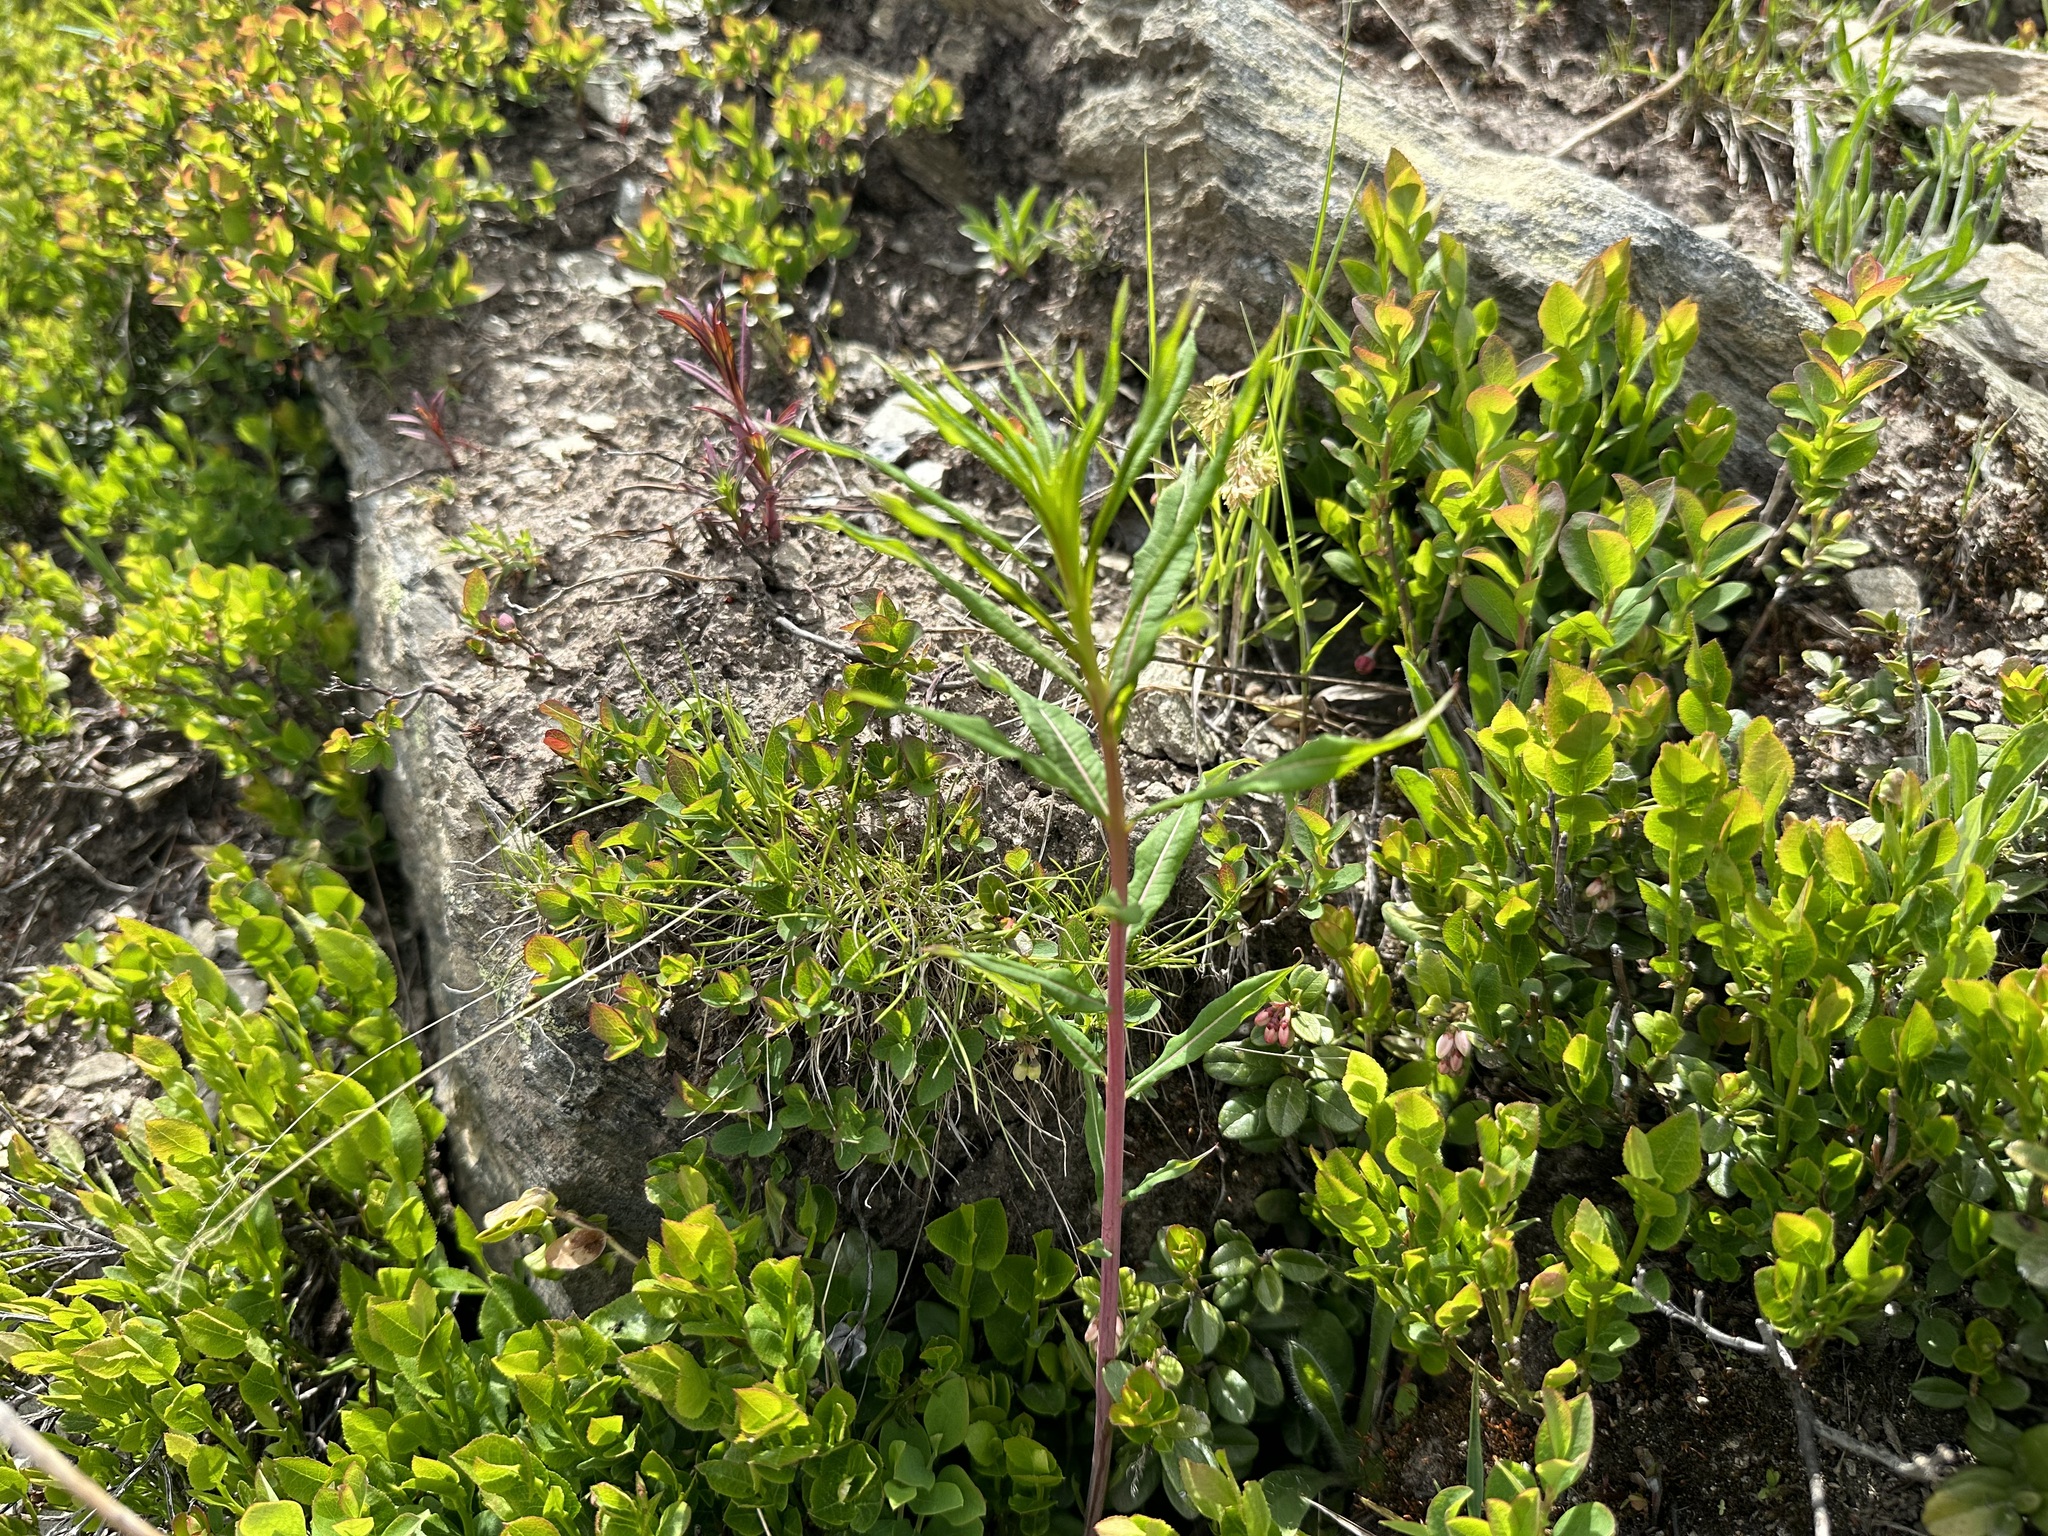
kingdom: Plantae
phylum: Tracheophyta
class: Magnoliopsida
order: Myrtales
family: Onagraceae
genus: Chamaenerion
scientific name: Chamaenerion angustifolium
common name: Fireweed
